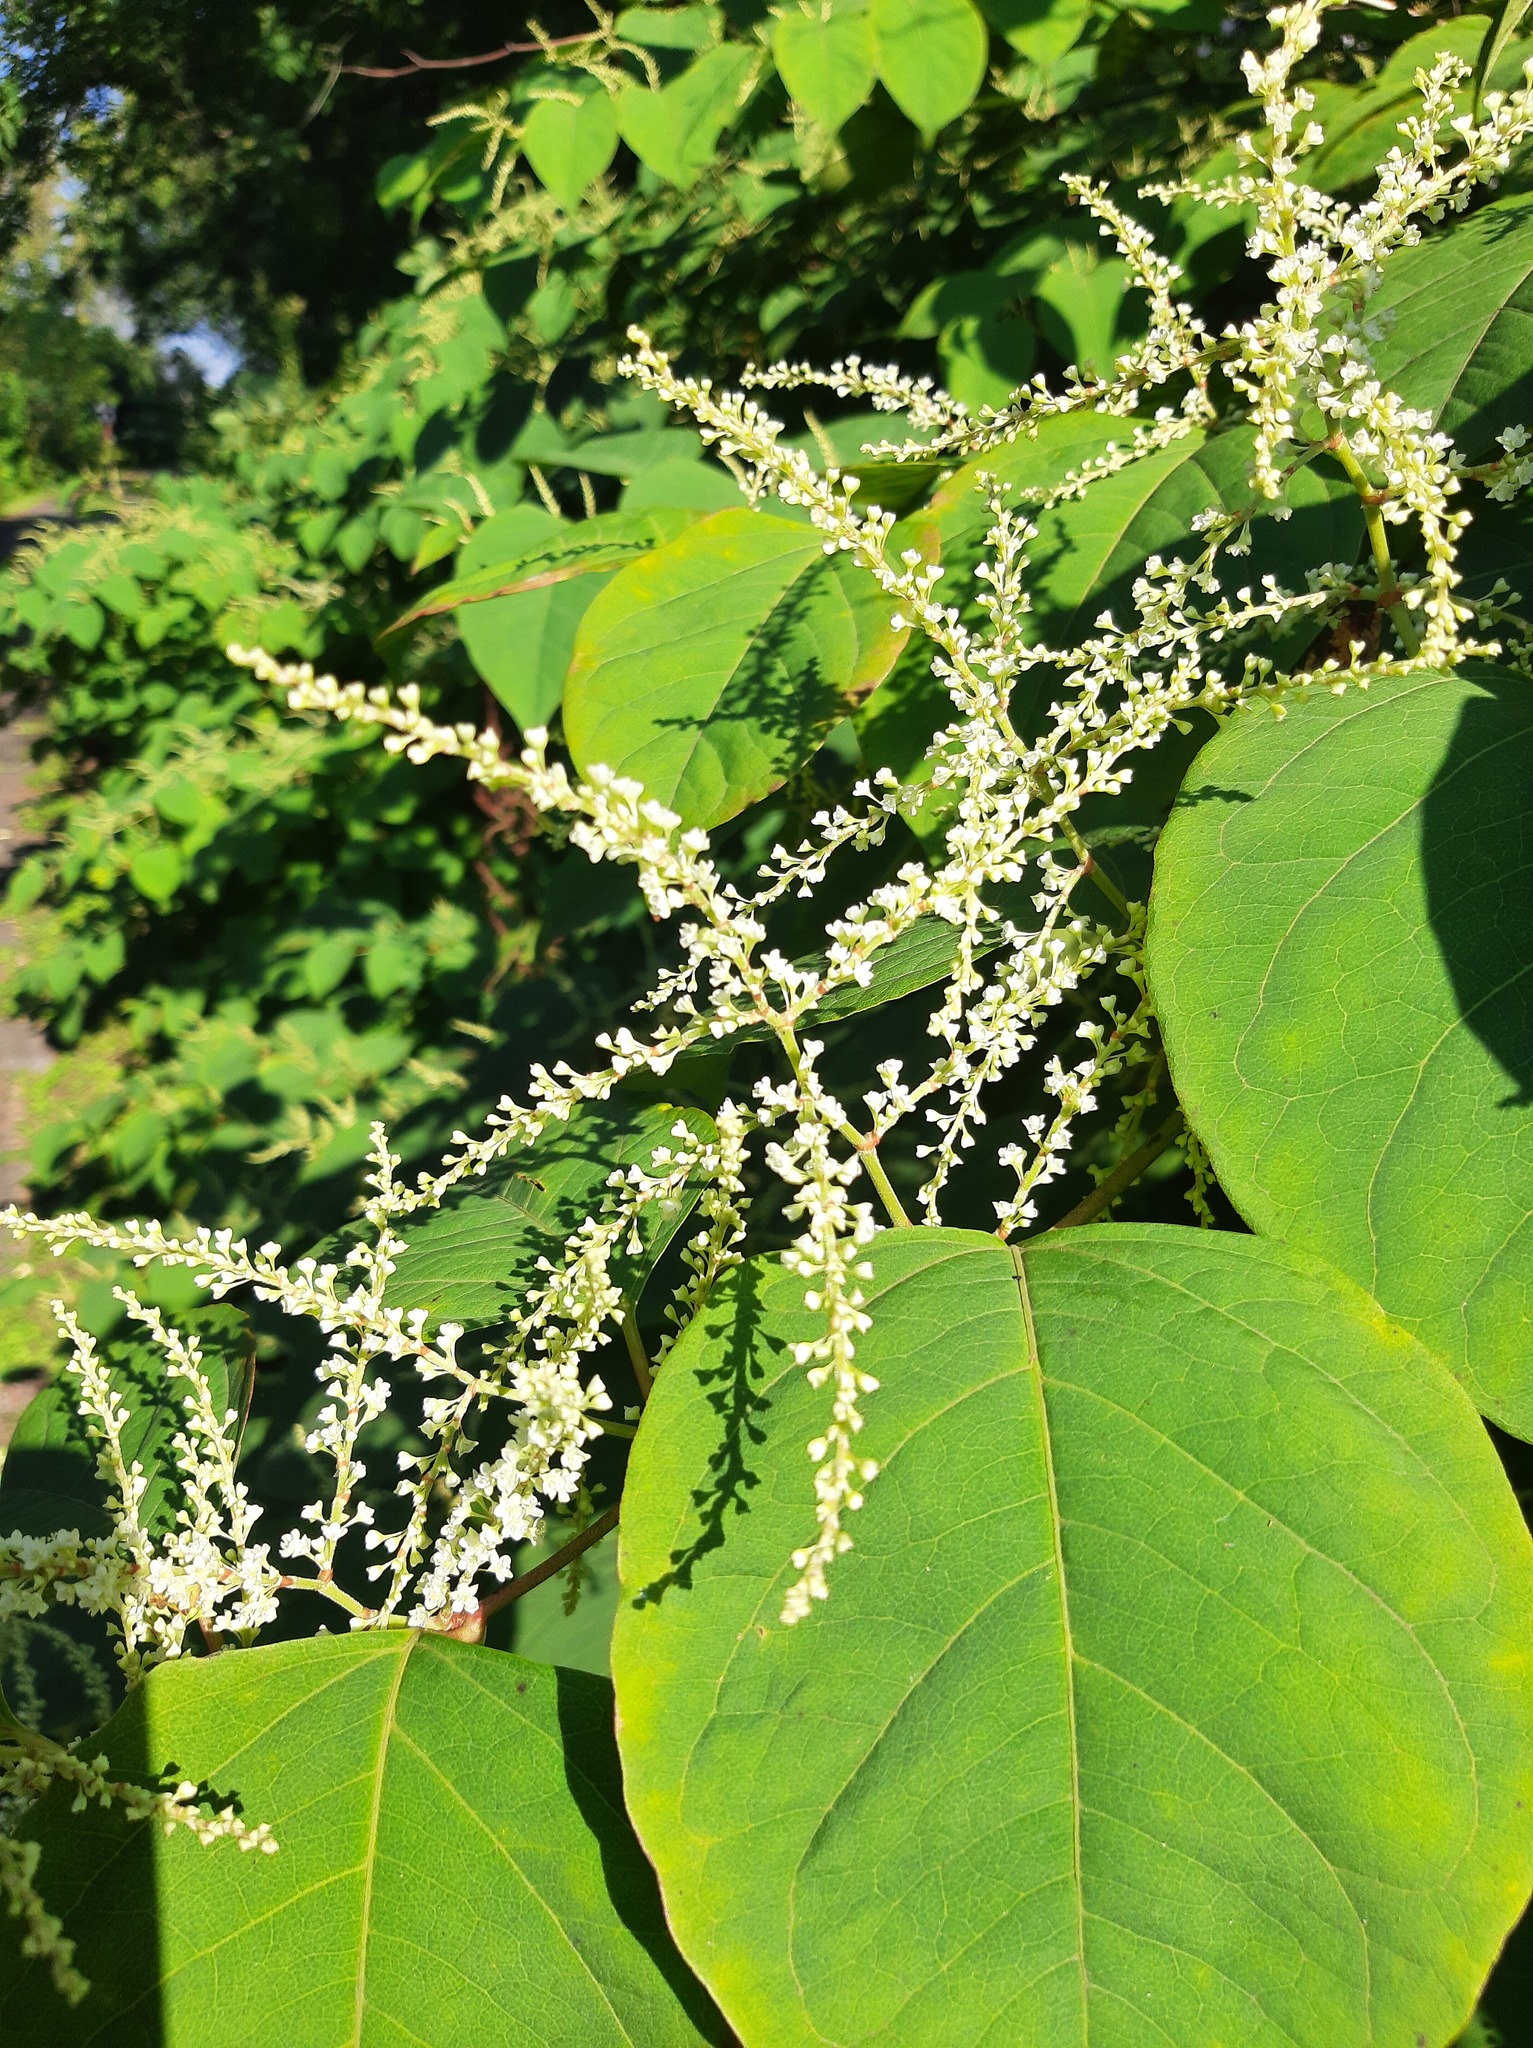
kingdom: Plantae
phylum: Tracheophyta
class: Magnoliopsida
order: Caryophyllales
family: Polygonaceae
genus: Reynoutria
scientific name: Reynoutria japonica
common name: Japanese knotweed
